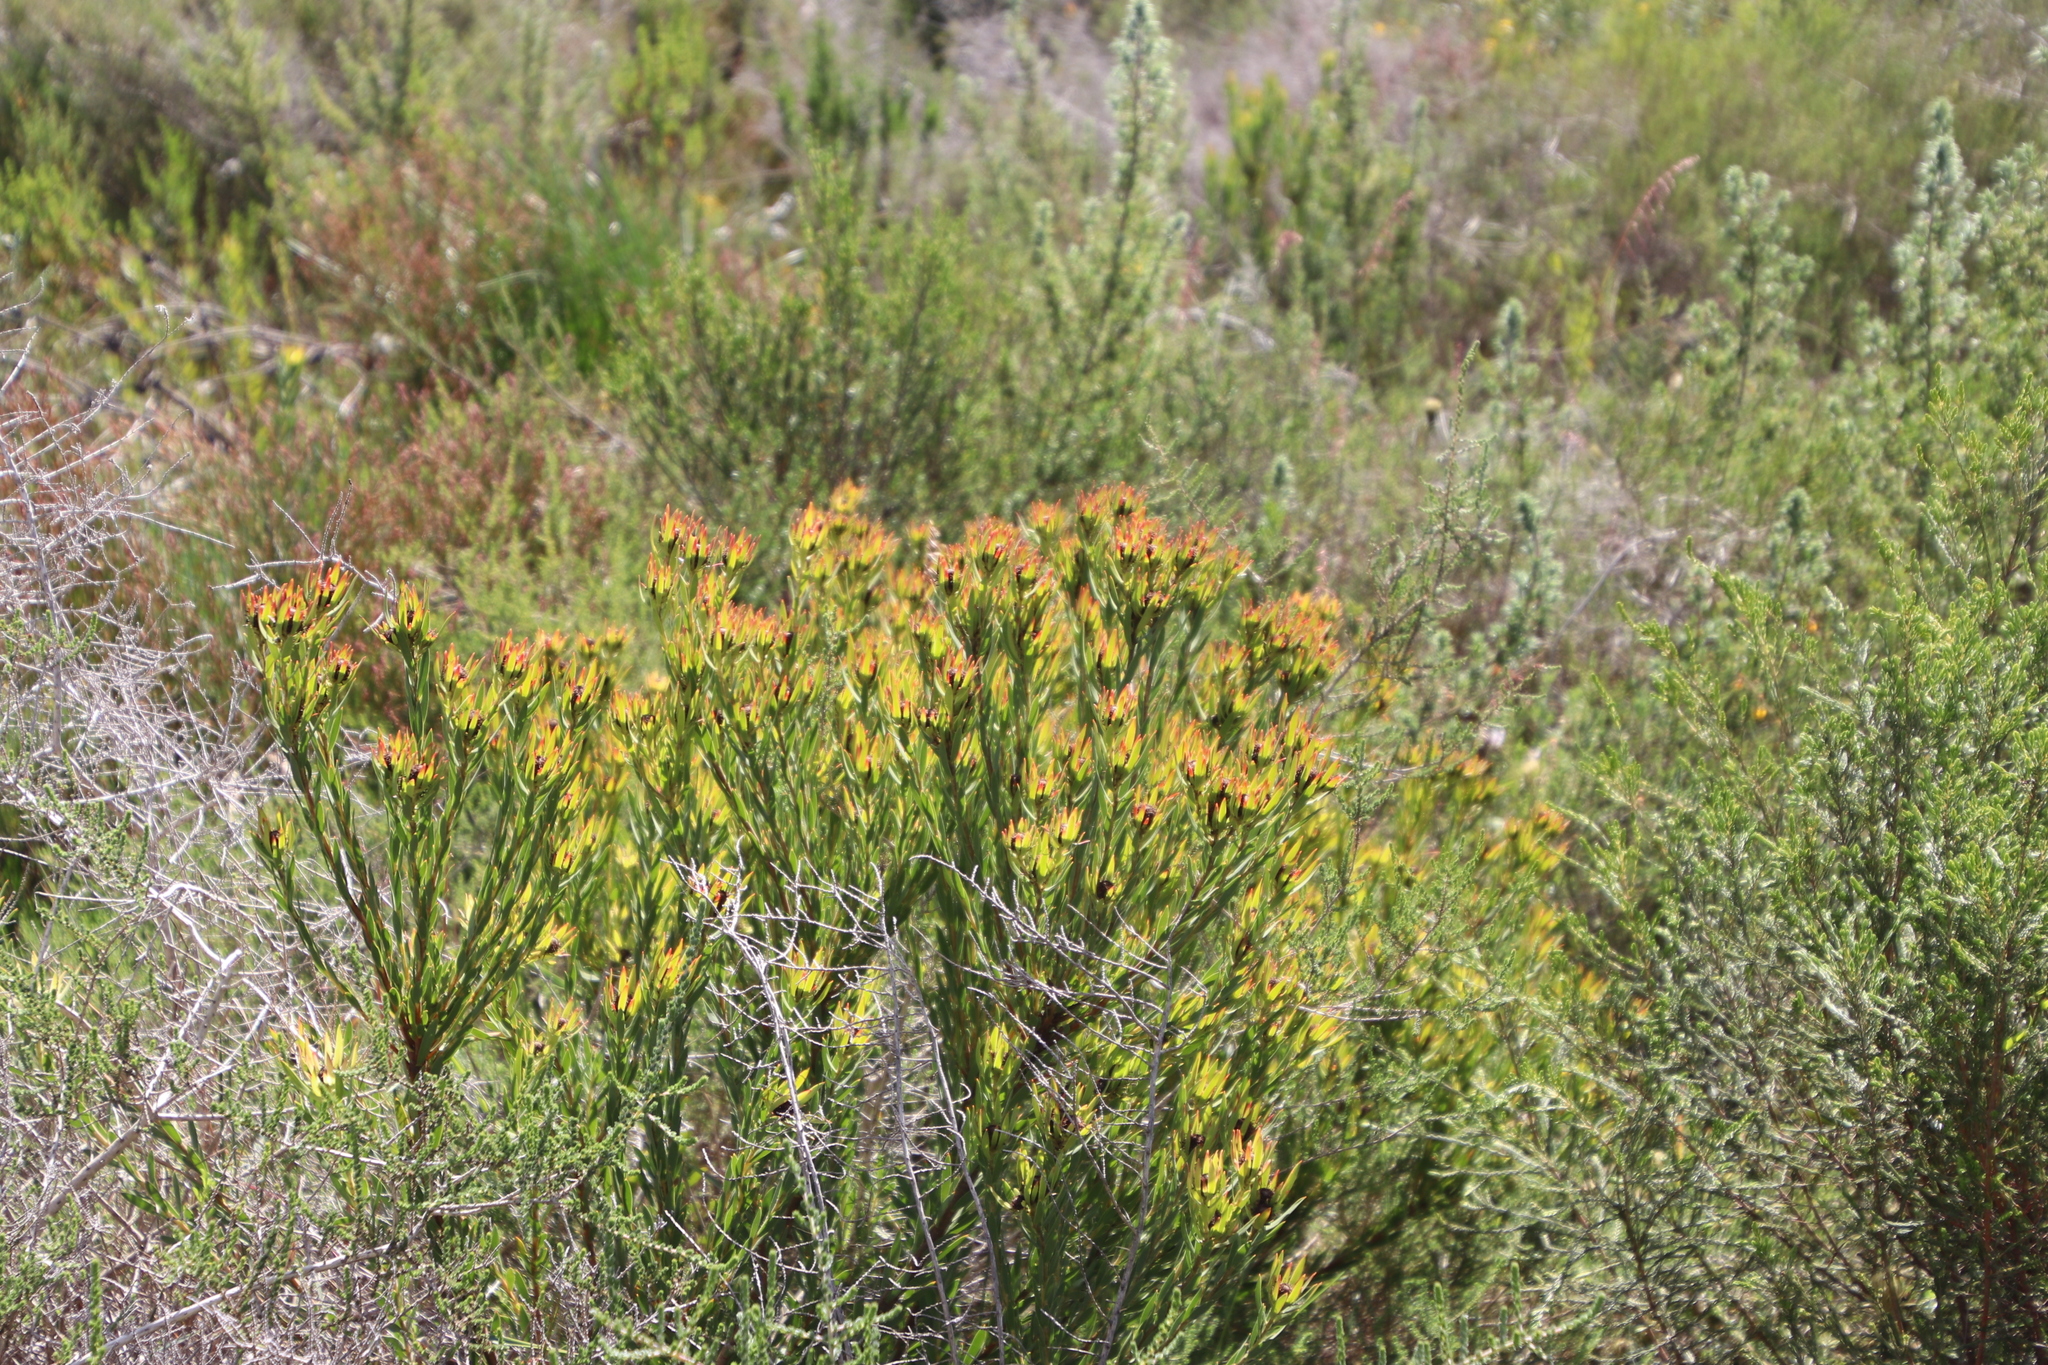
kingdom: Plantae
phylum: Tracheophyta
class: Magnoliopsida
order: Proteales
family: Proteaceae
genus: Leucadendron
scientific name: Leucadendron lanigerum
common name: Shale conebush
